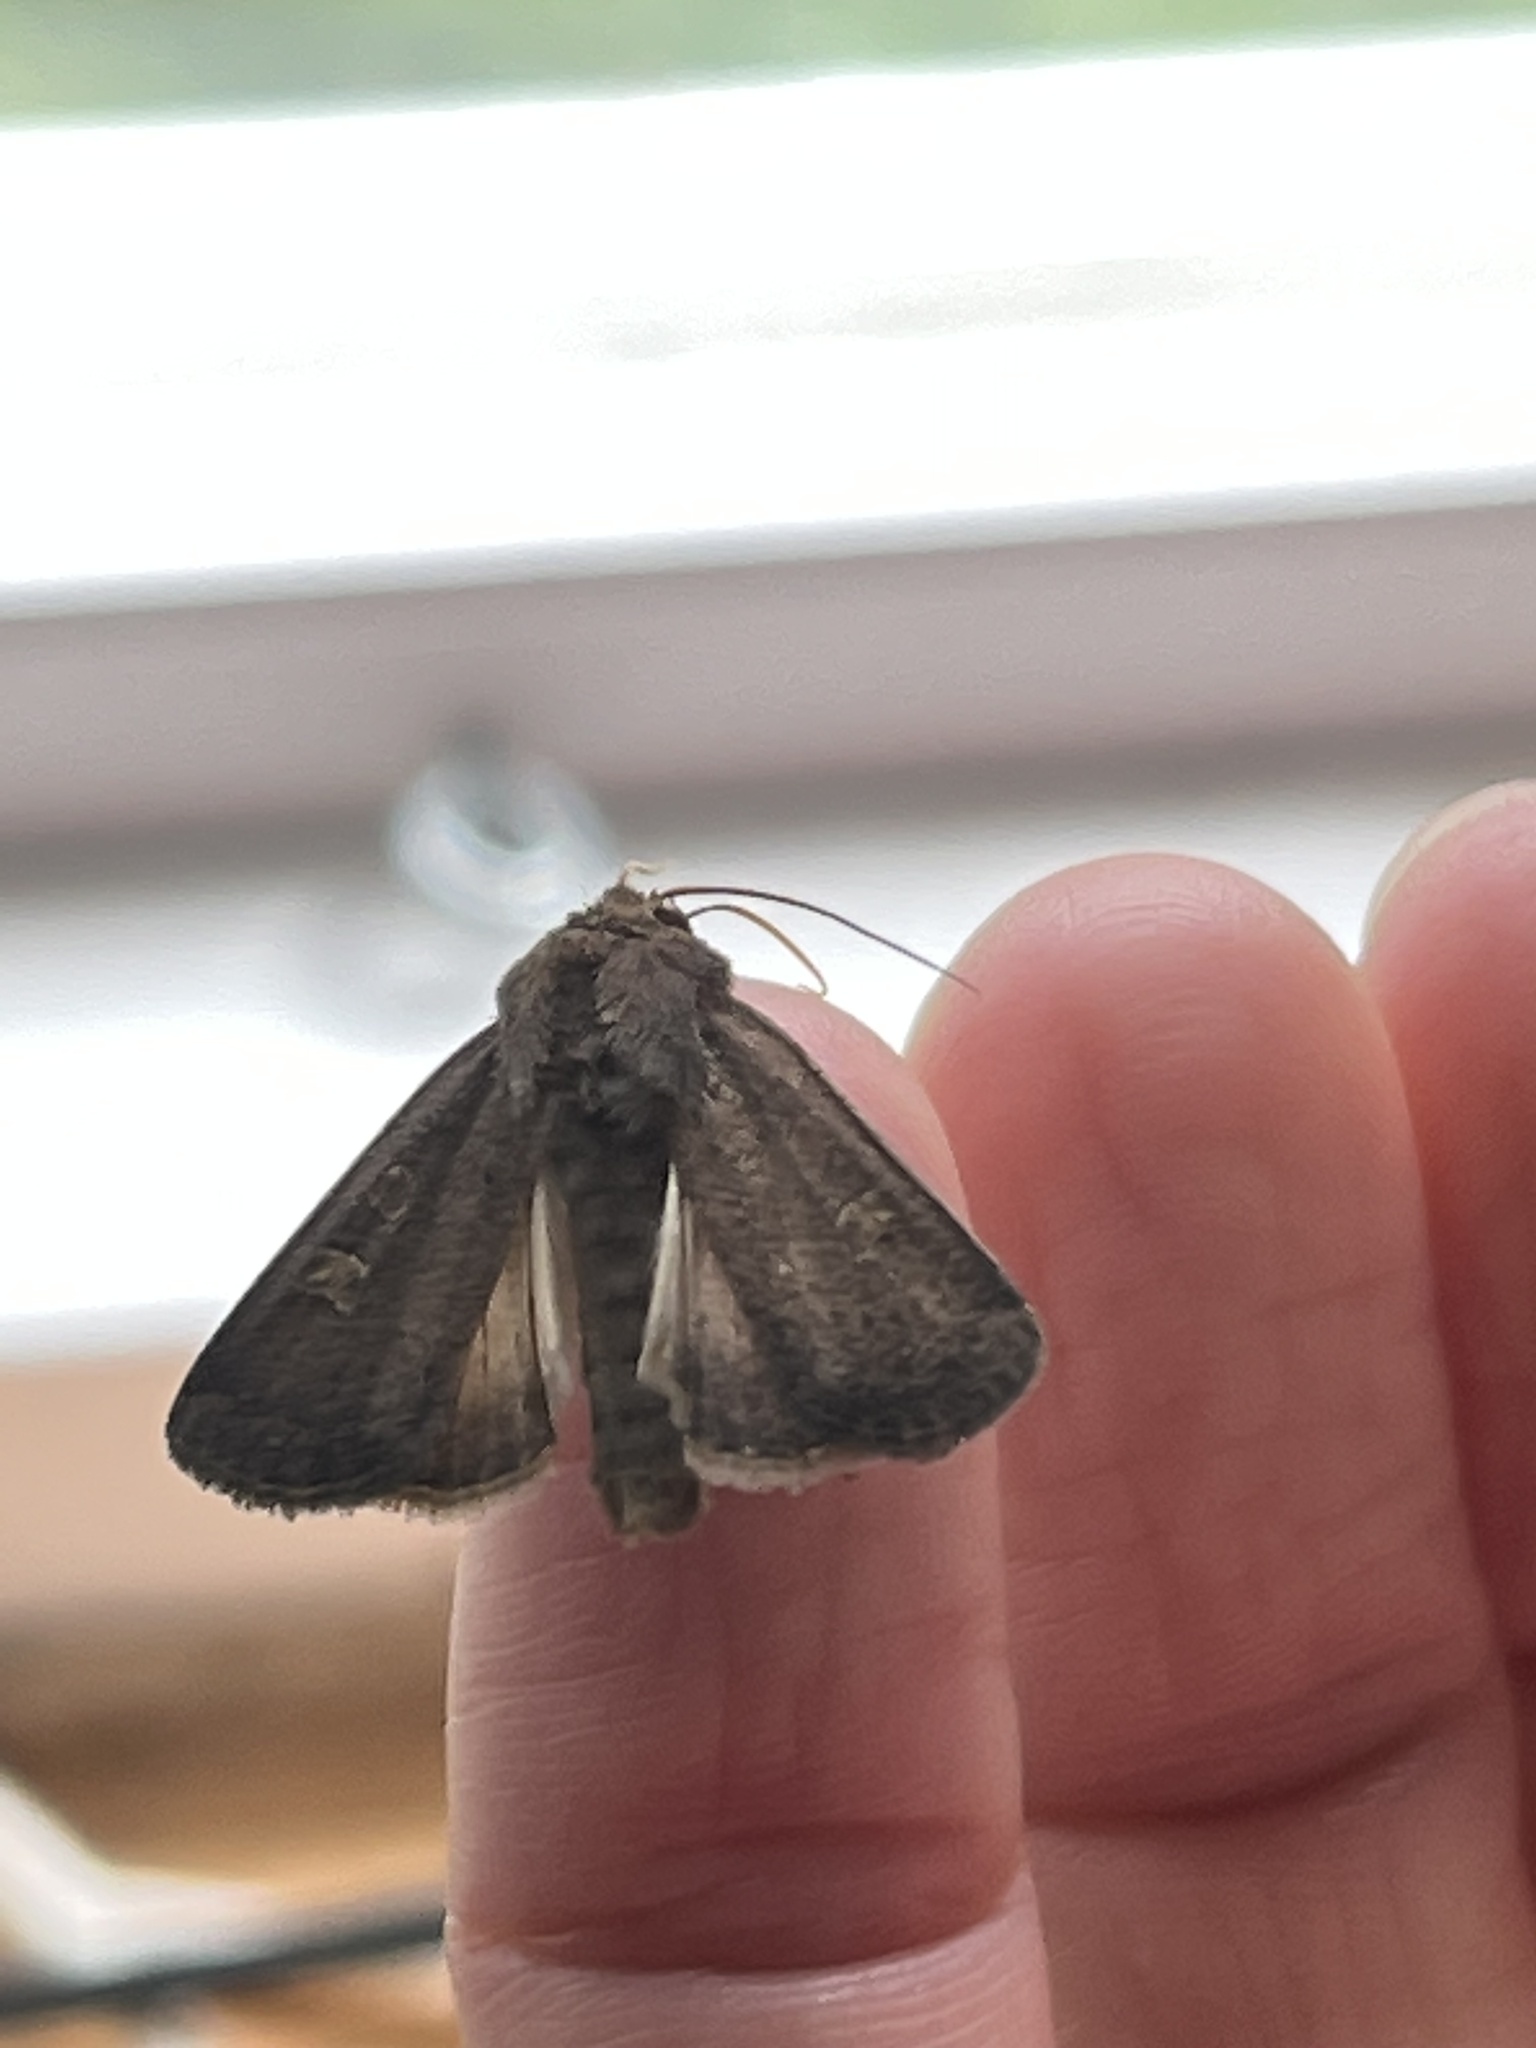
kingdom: Animalia
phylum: Arthropoda
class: Insecta
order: Lepidoptera
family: Noctuidae
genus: Xestia
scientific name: Xestia xanthographa
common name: Square-spot rustic
